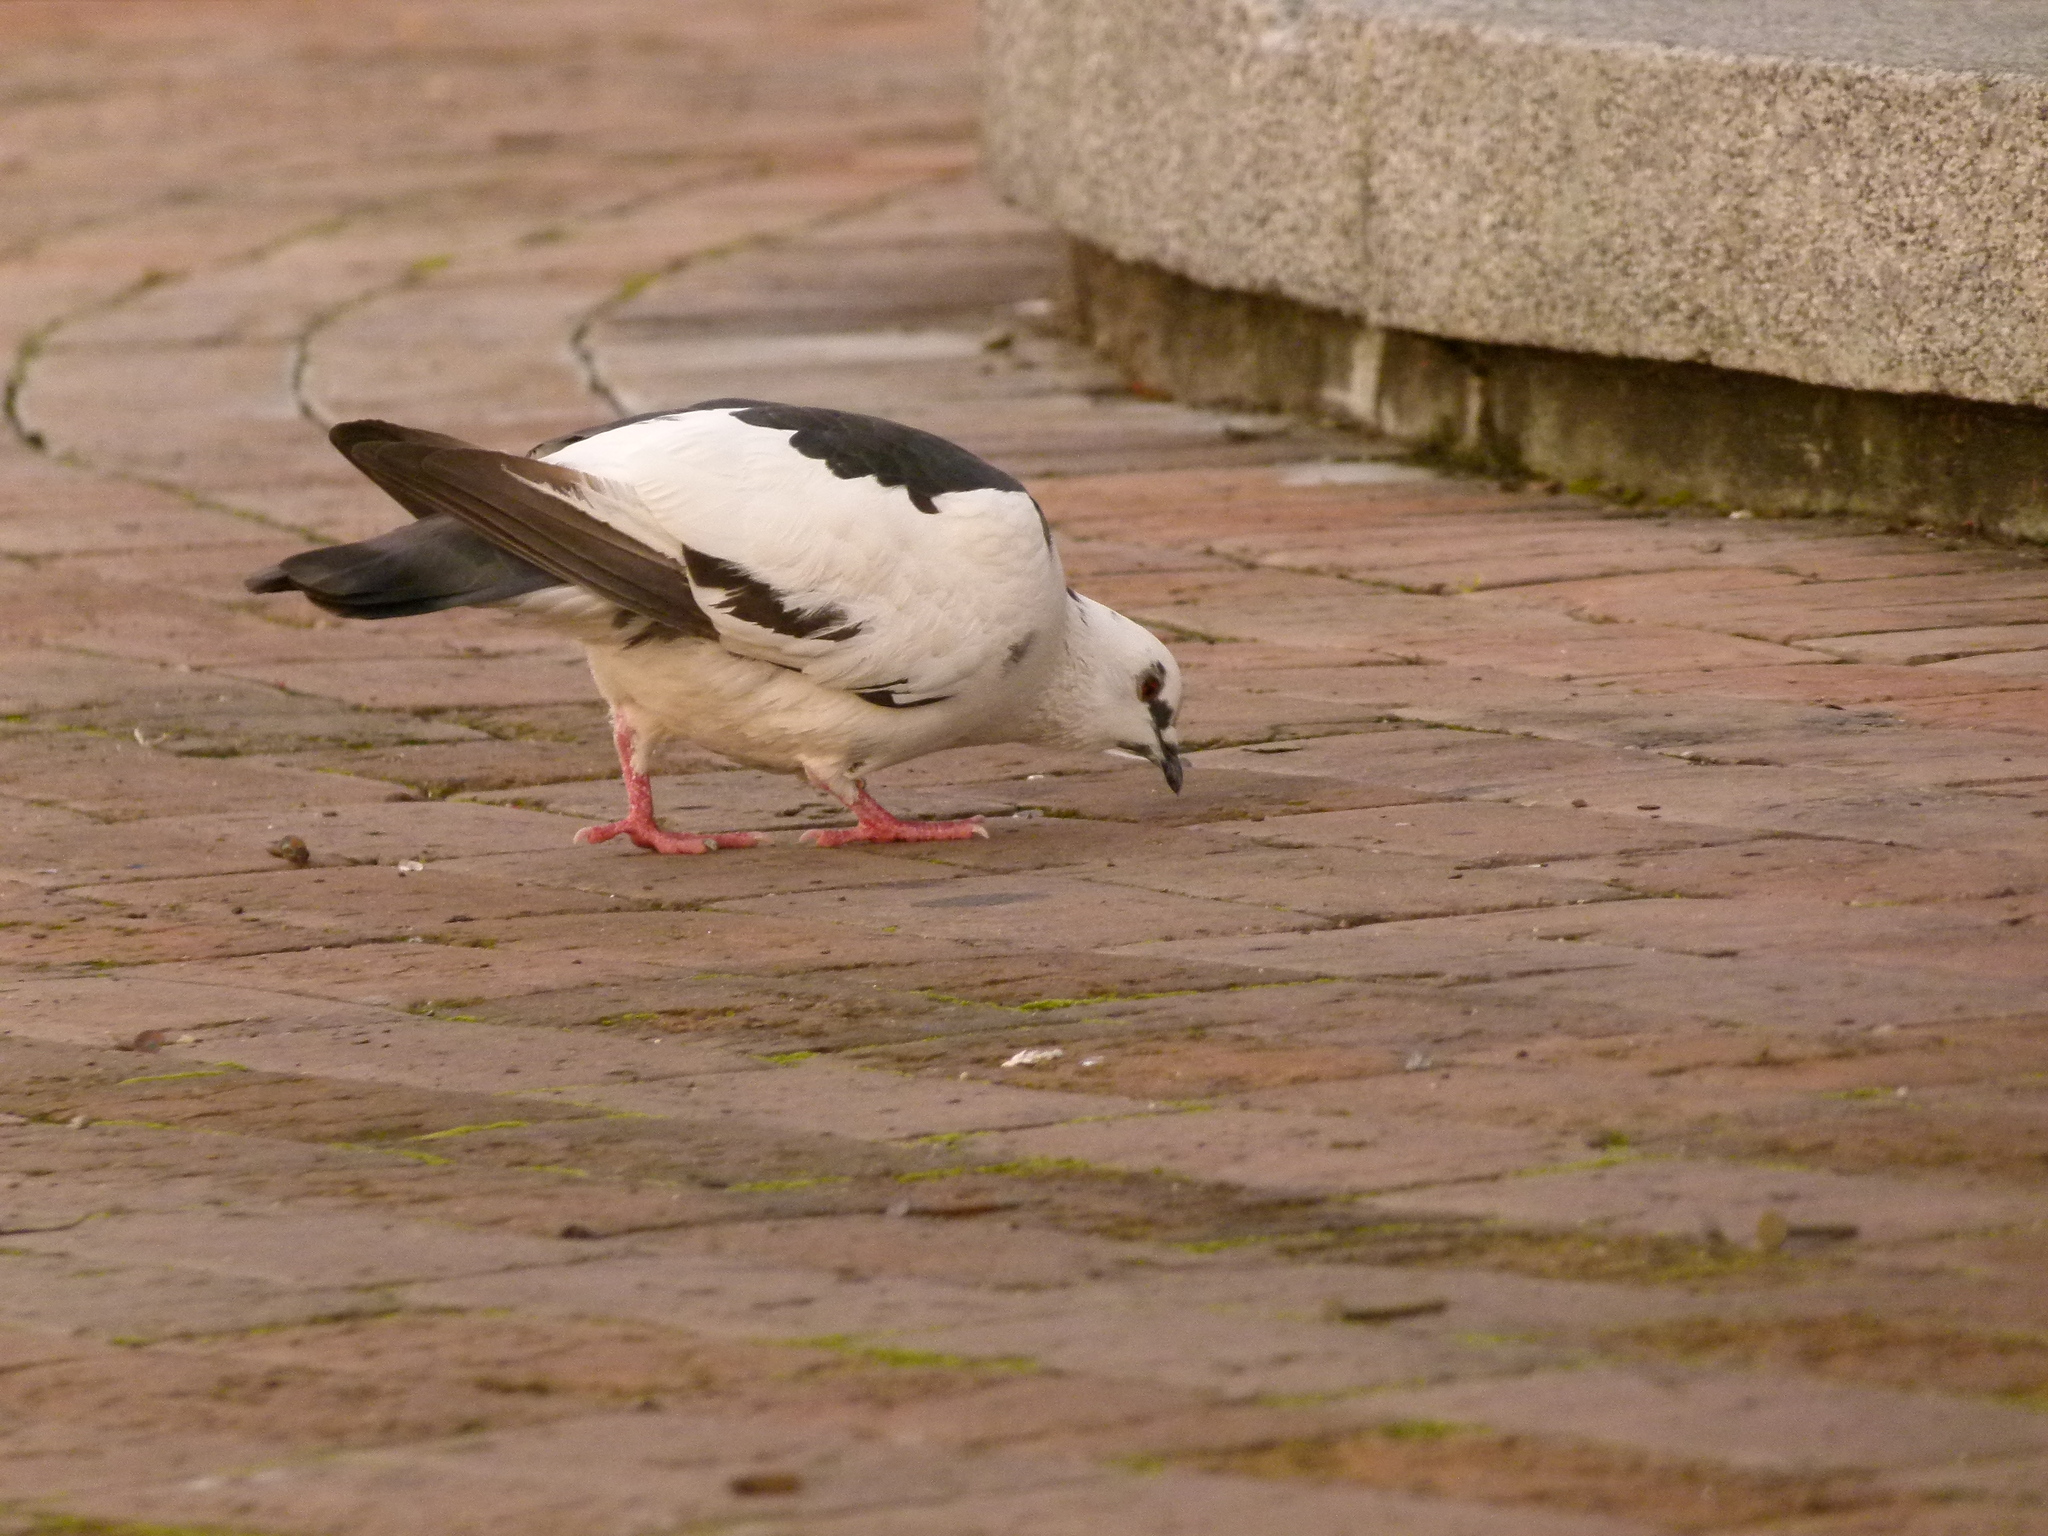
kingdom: Animalia
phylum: Chordata
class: Aves
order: Columbiformes
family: Columbidae
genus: Columba
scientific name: Columba livia
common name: Rock pigeon
